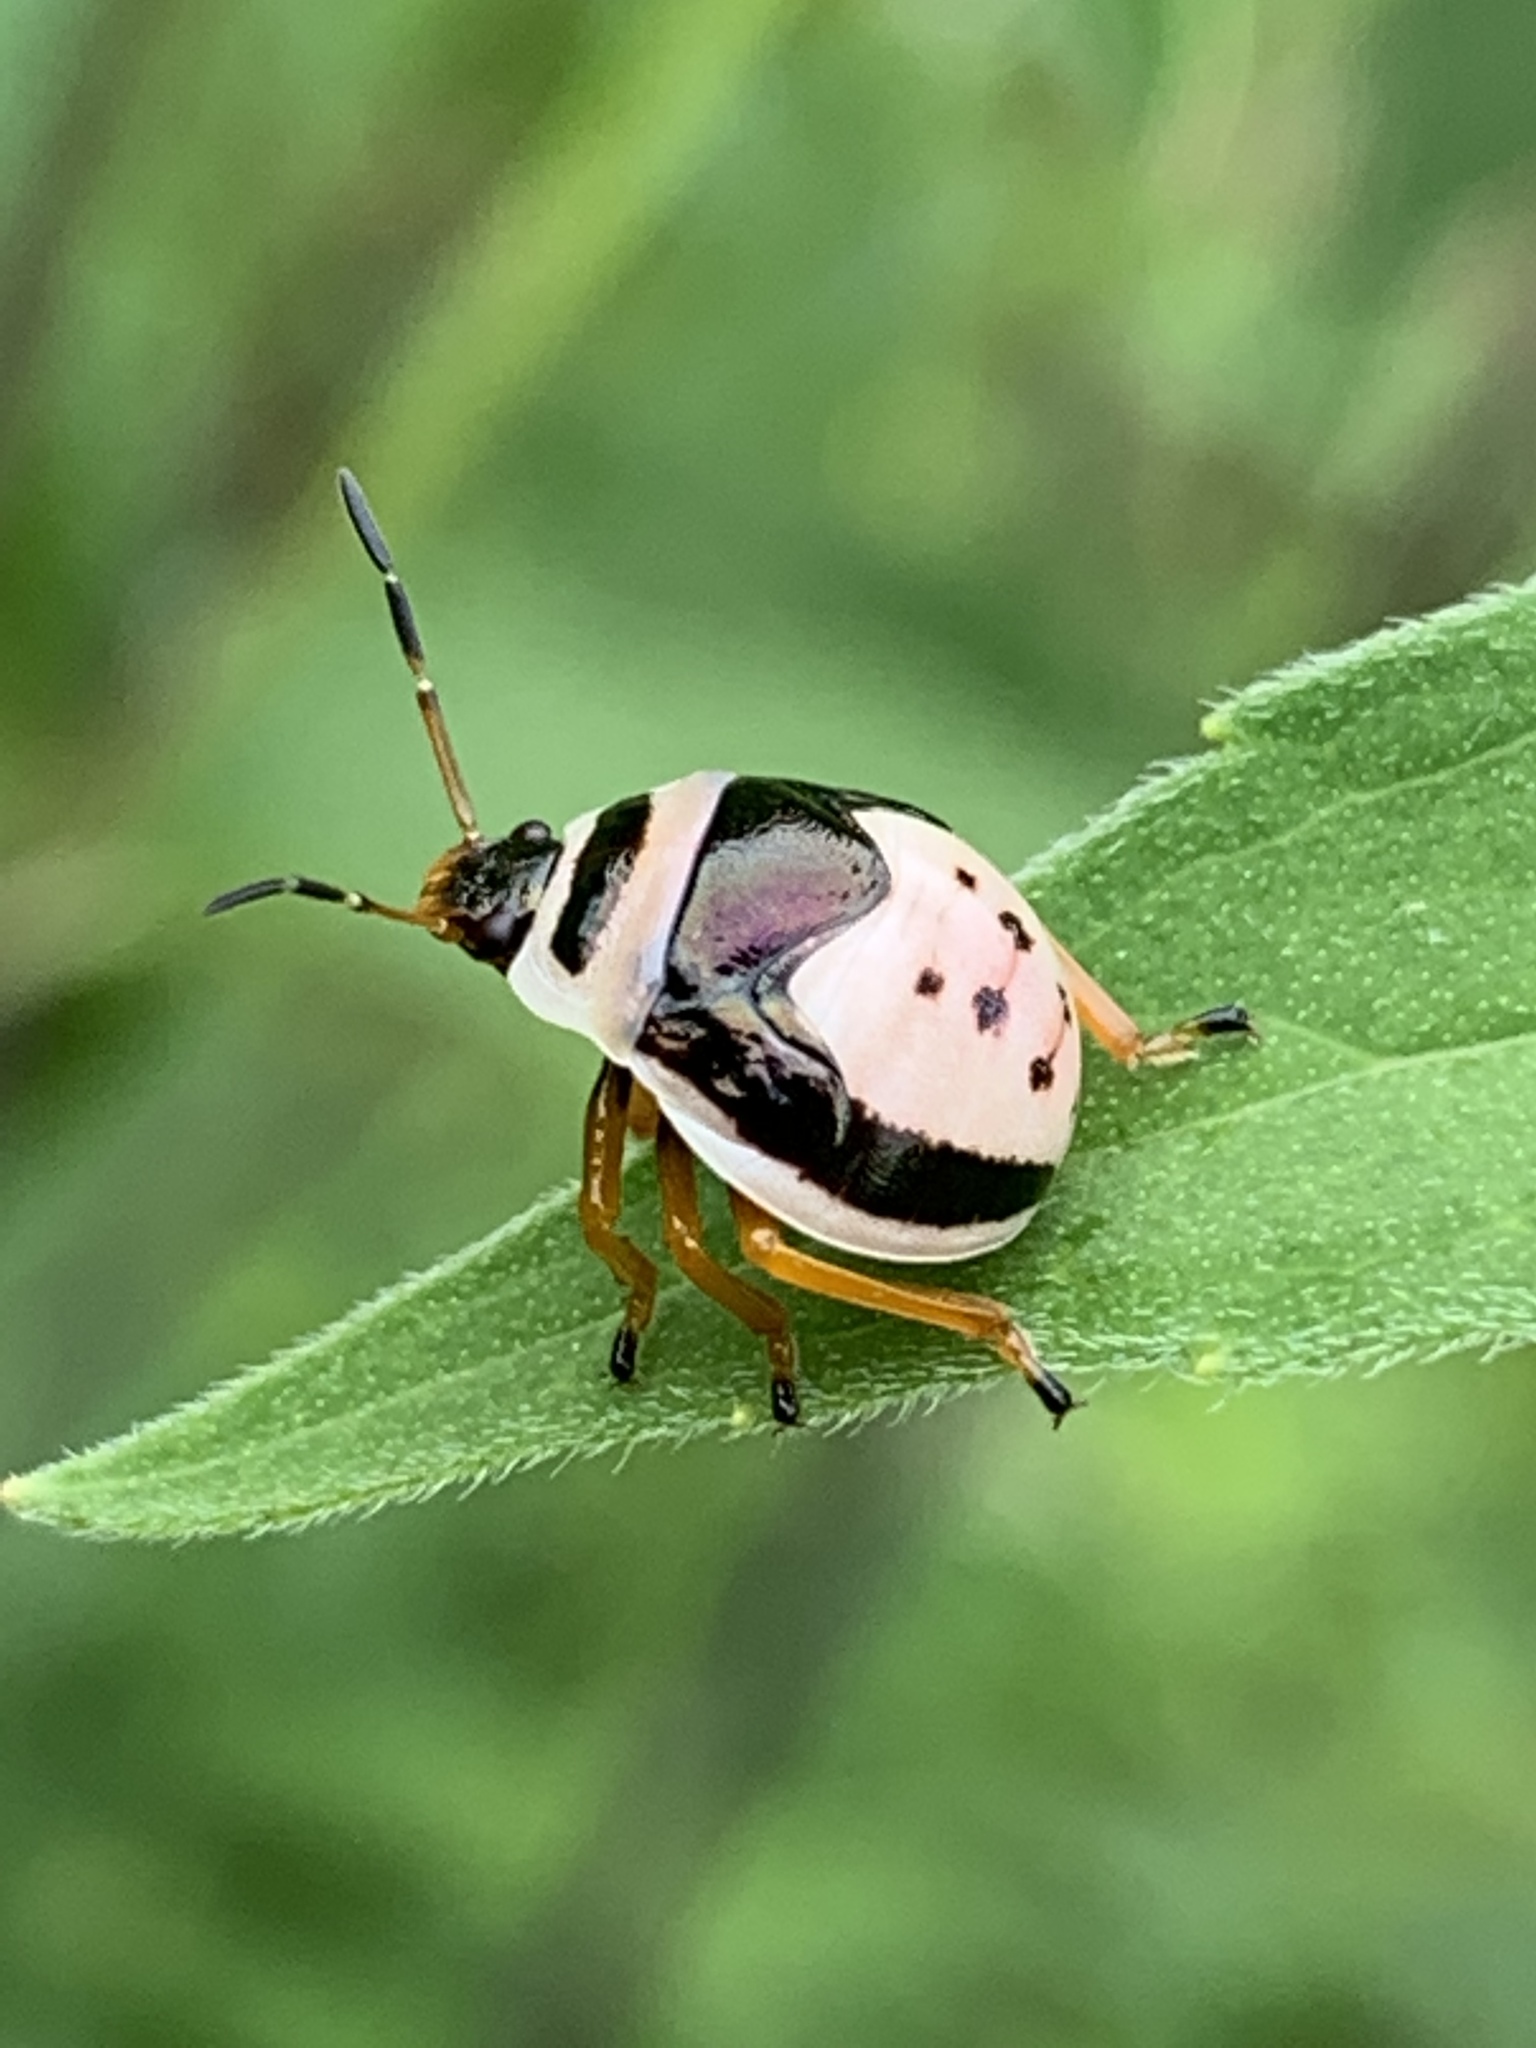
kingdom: Animalia
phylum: Arthropoda
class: Insecta
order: Hemiptera
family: Pentatomidae
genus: Stiretrus
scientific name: Stiretrus anchorago
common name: Anchor stink bug
